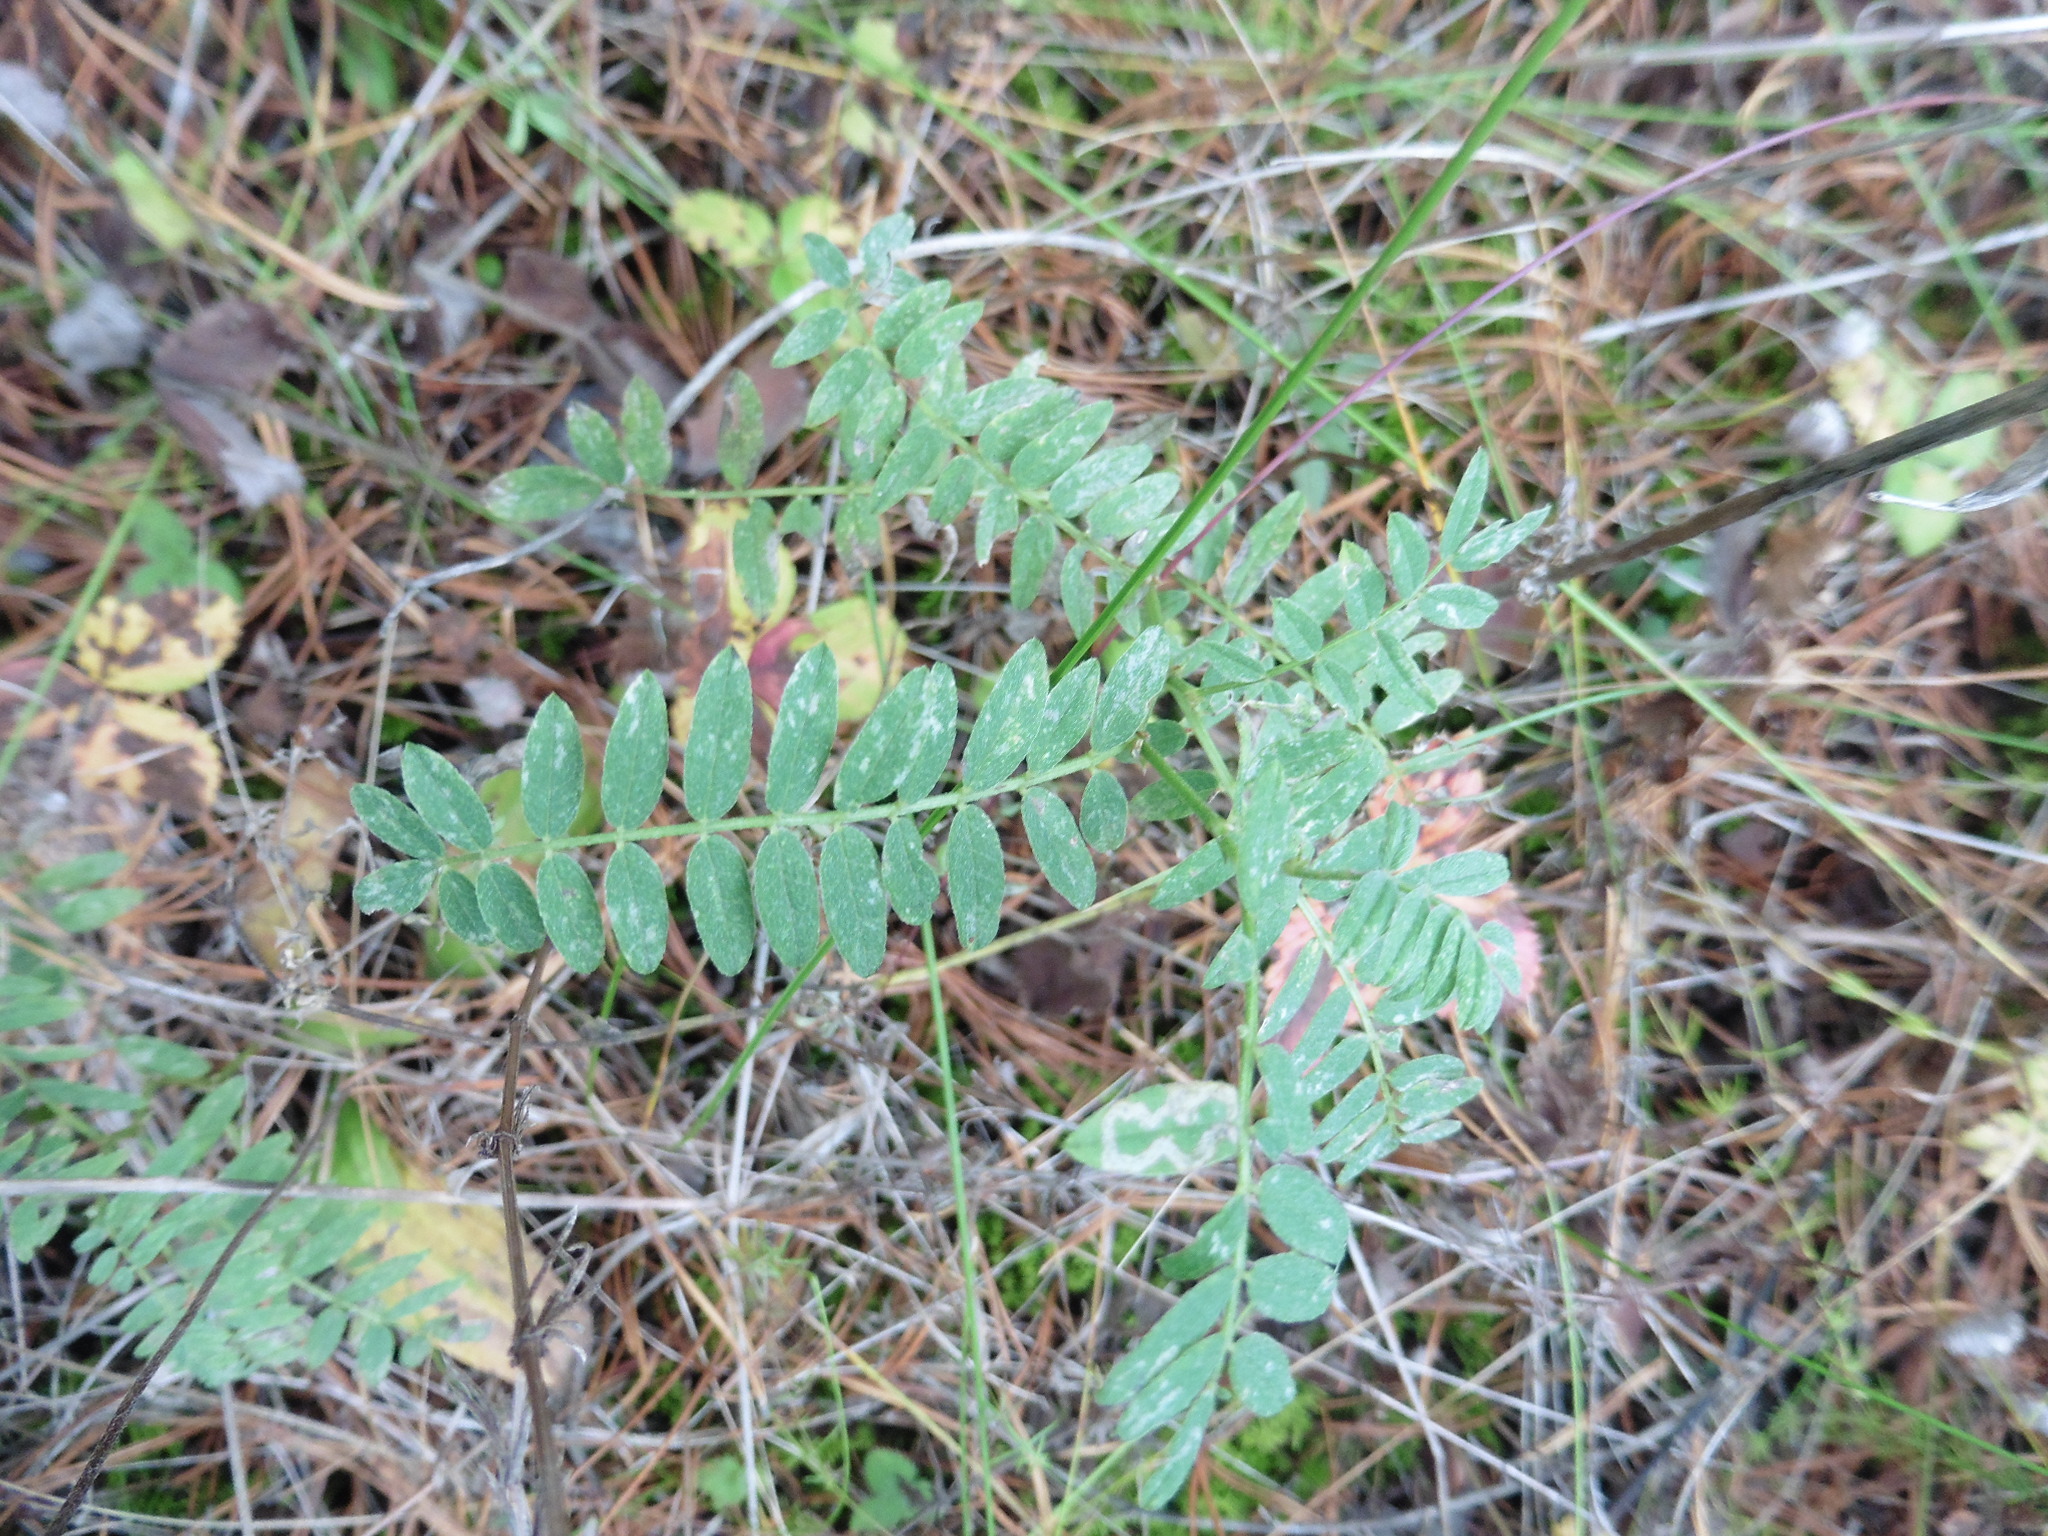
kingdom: Plantae
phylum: Tracheophyta
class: Magnoliopsida
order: Fabales
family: Fabaceae
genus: Astragalus
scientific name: Astragalus cicer
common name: Chick-pea milk-vetch
